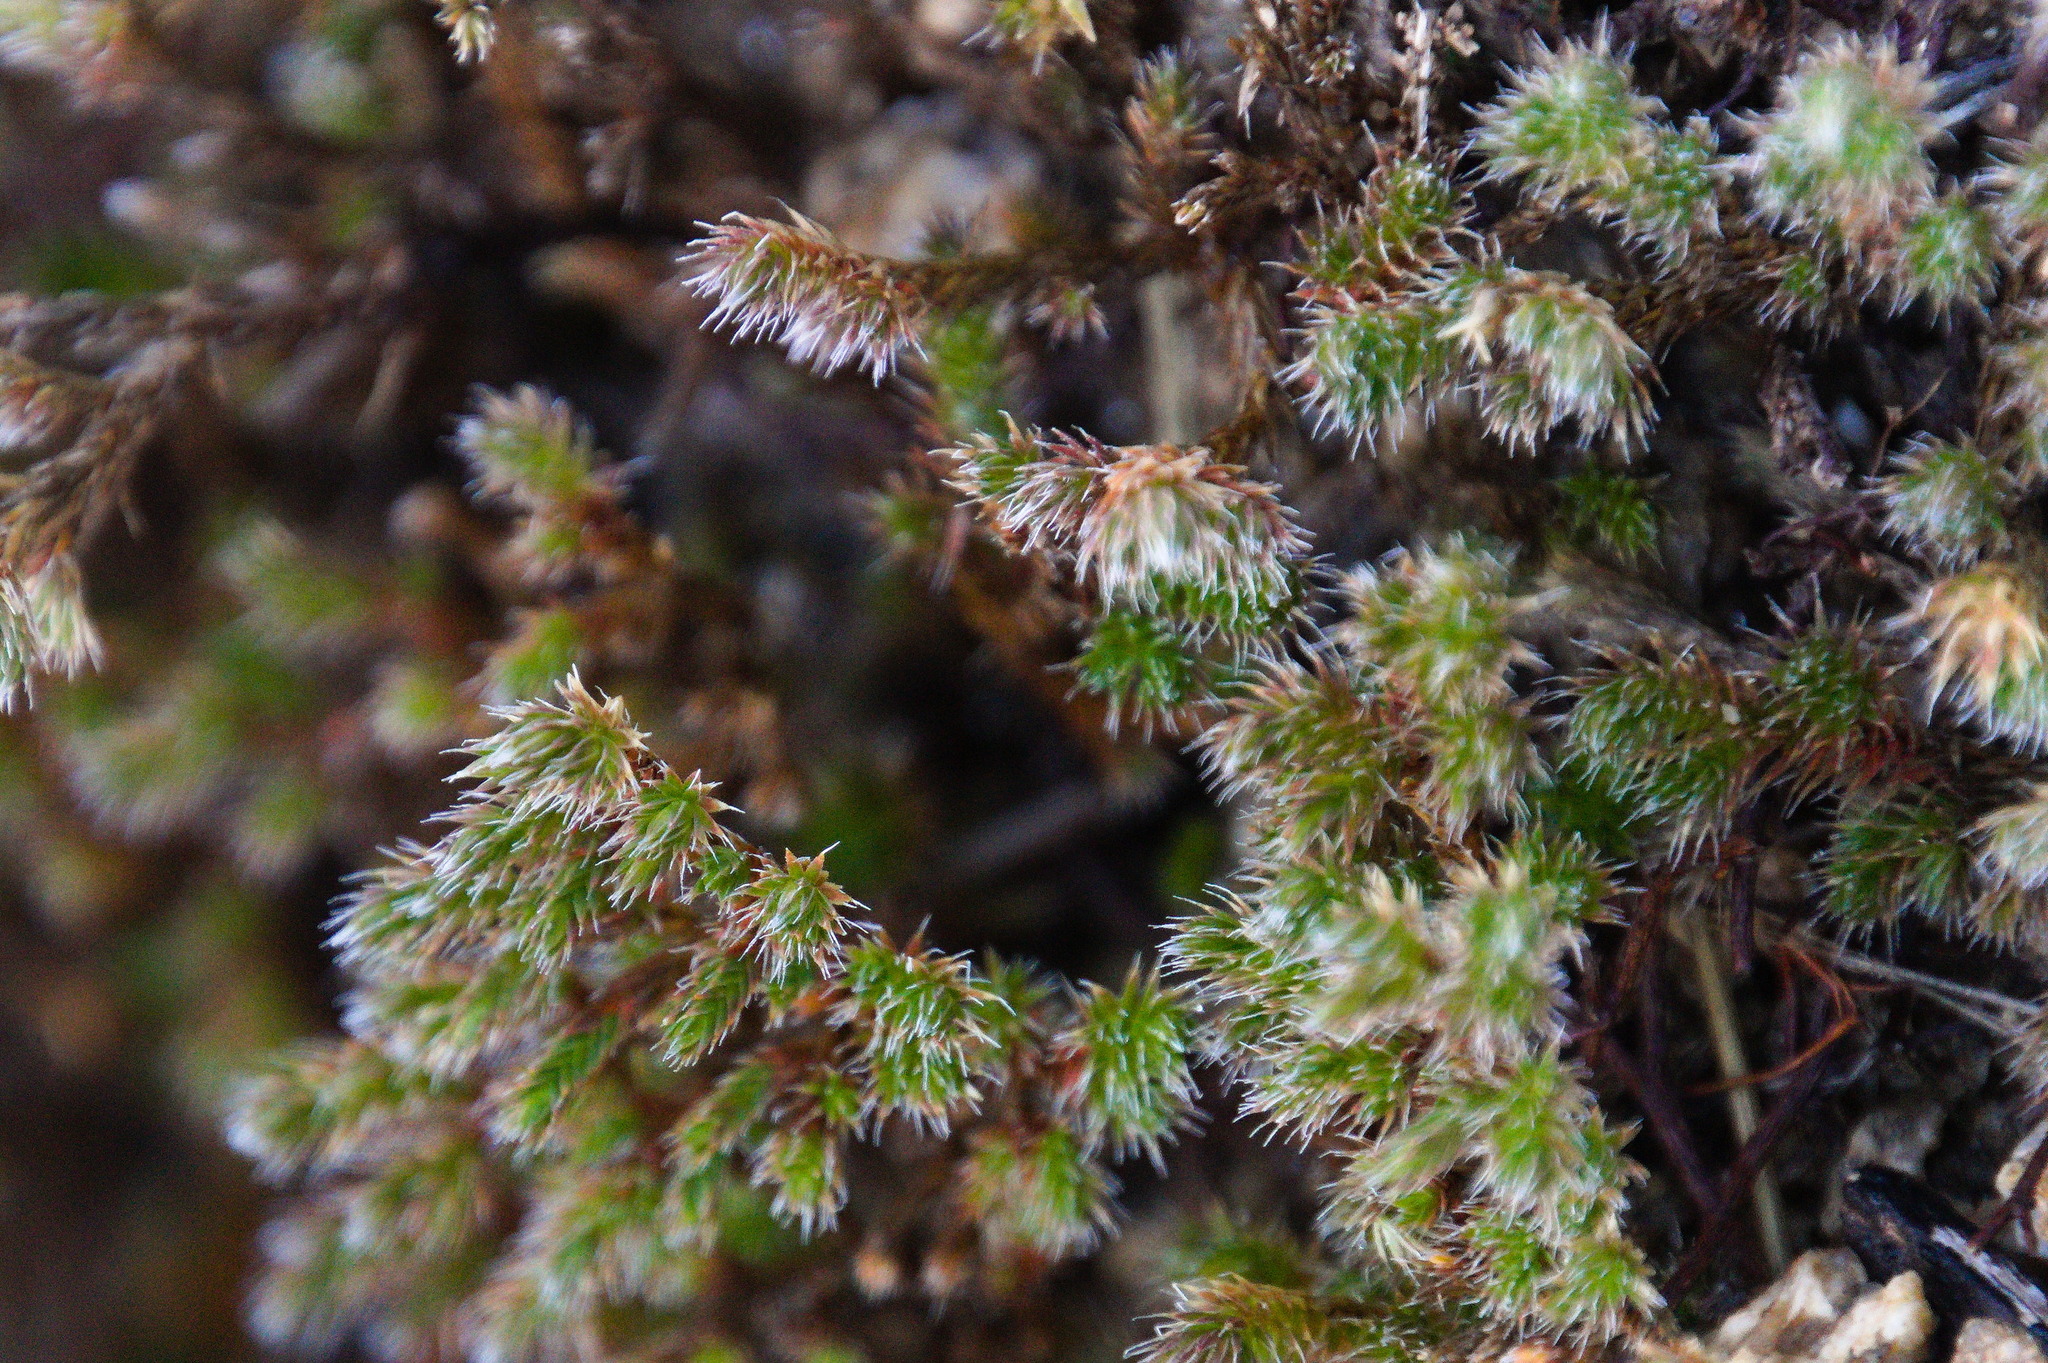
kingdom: Plantae
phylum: Tracheophyta
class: Lycopodiopsida
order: Selaginellales
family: Selaginellaceae
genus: Selaginella
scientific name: Selaginella rupincola
